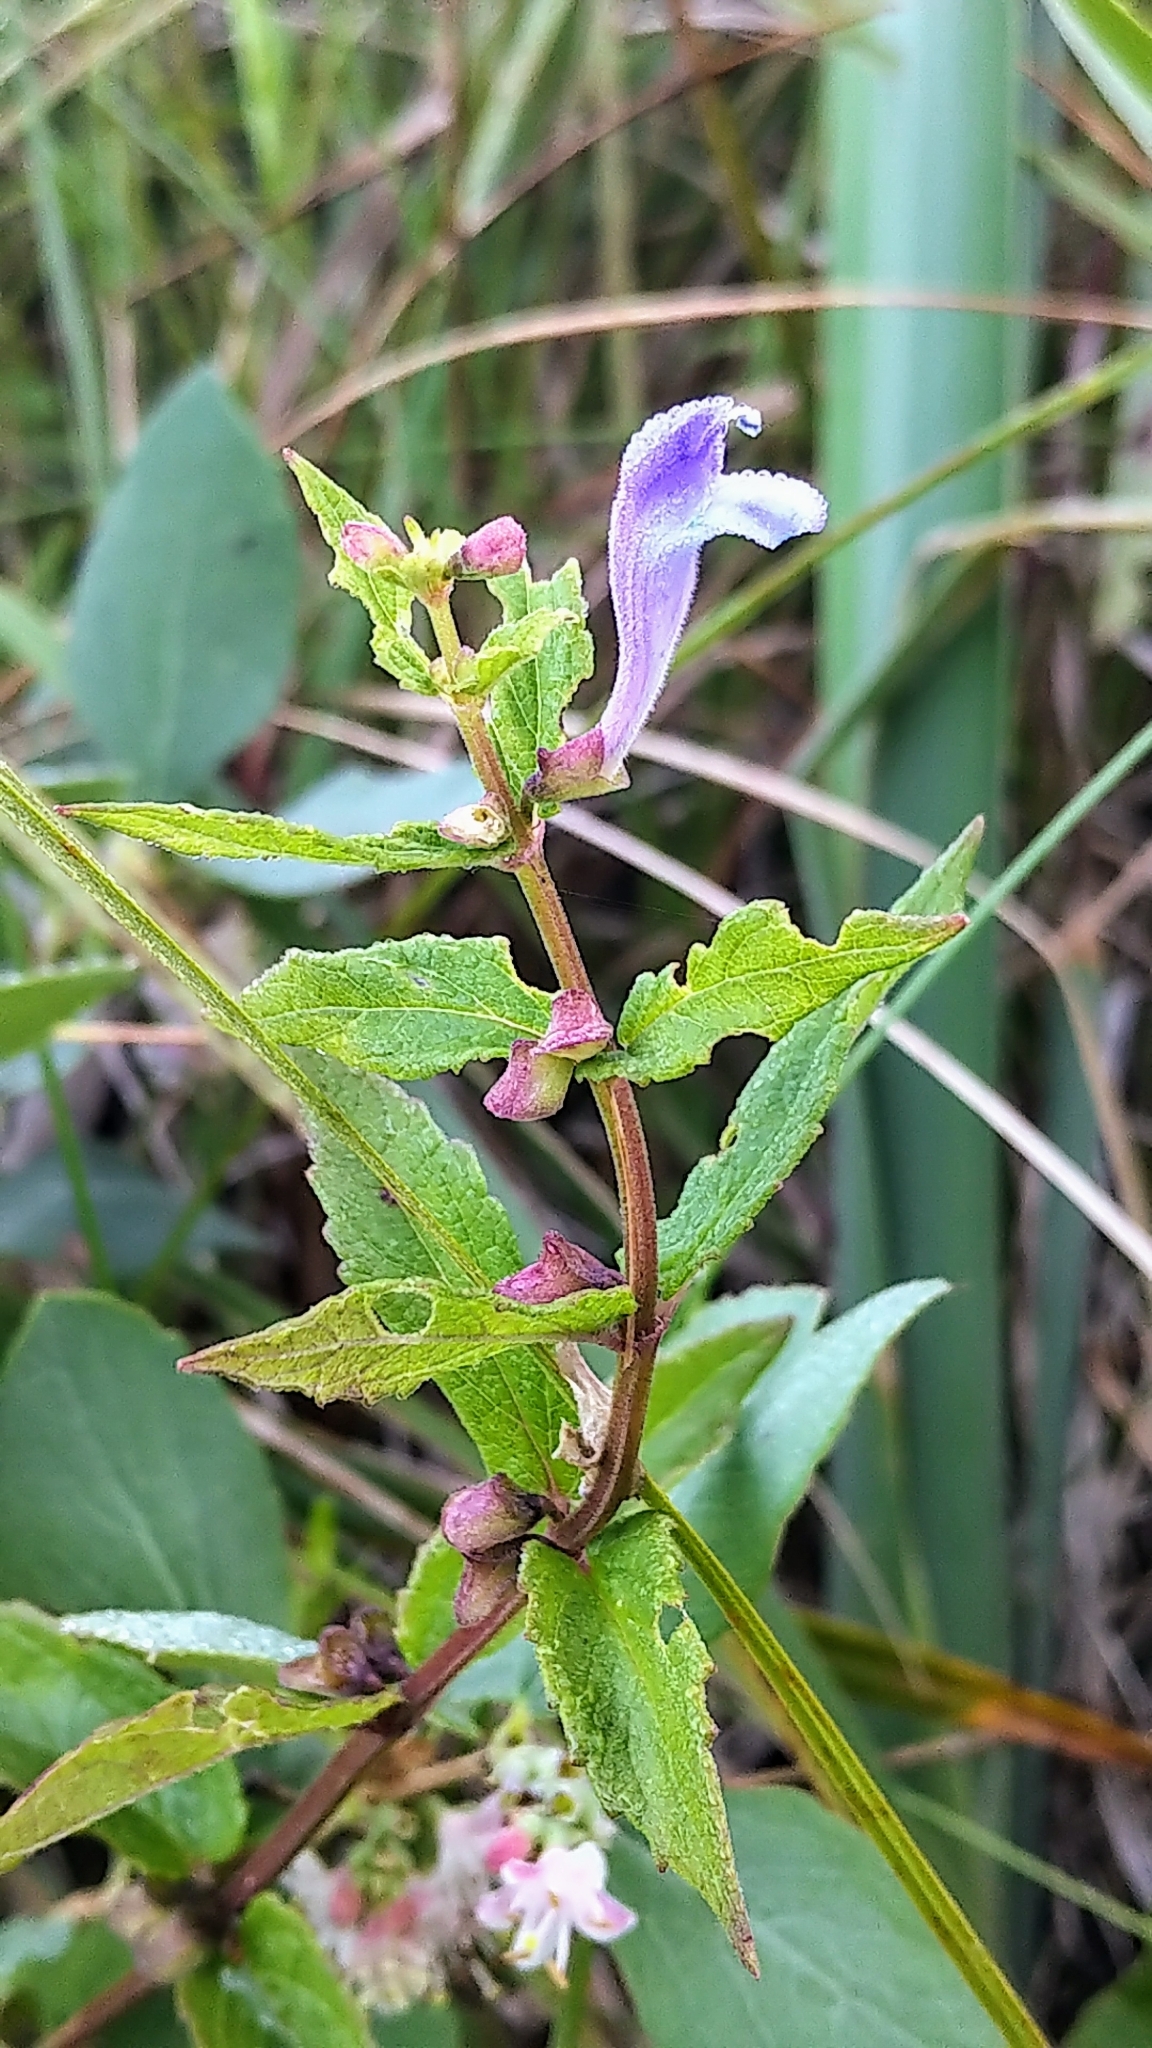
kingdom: Plantae
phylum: Tracheophyta
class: Magnoliopsida
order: Lamiales
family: Lamiaceae
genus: Scutellaria
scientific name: Scutellaria galericulata
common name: Skullcap
